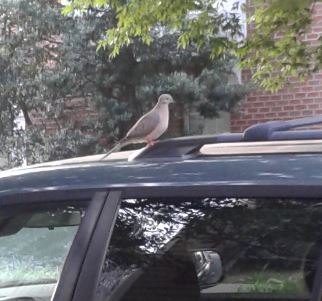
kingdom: Animalia
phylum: Chordata
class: Aves
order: Columbiformes
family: Columbidae
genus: Zenaida
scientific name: Zenaida macroura
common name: Mourning dove
